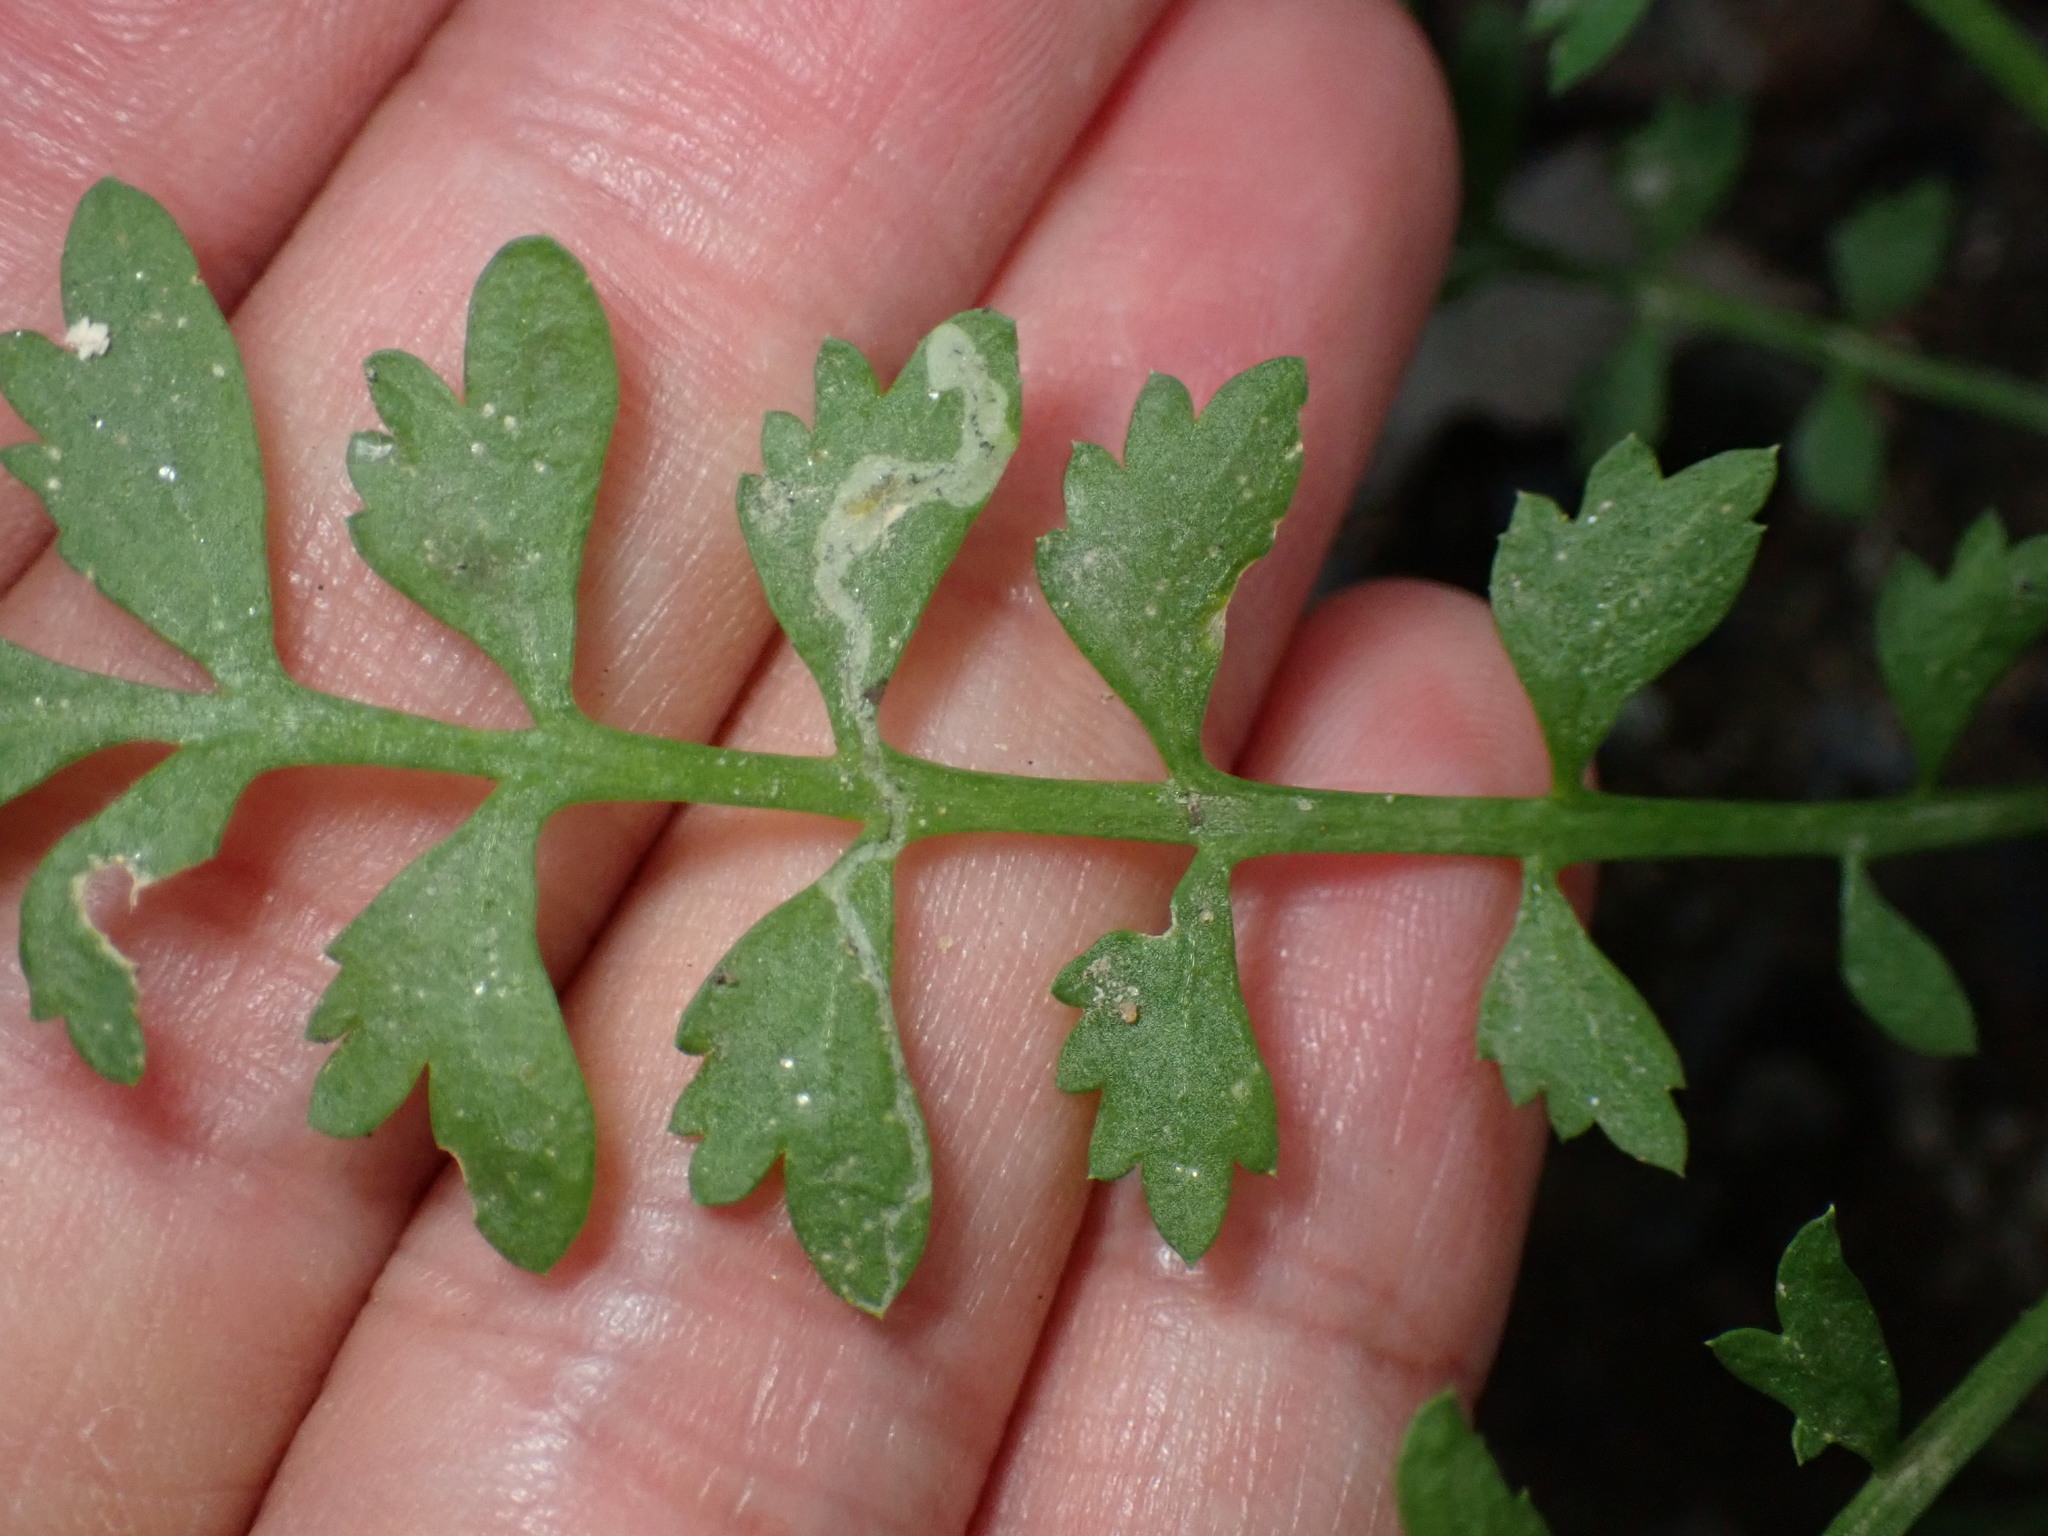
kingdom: Animalia
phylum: Arthropoda
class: Insecta
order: Diptera
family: Agromyzidae
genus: Liriomyza
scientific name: Liriomyza brassicae
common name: Serpentine leaf miner
